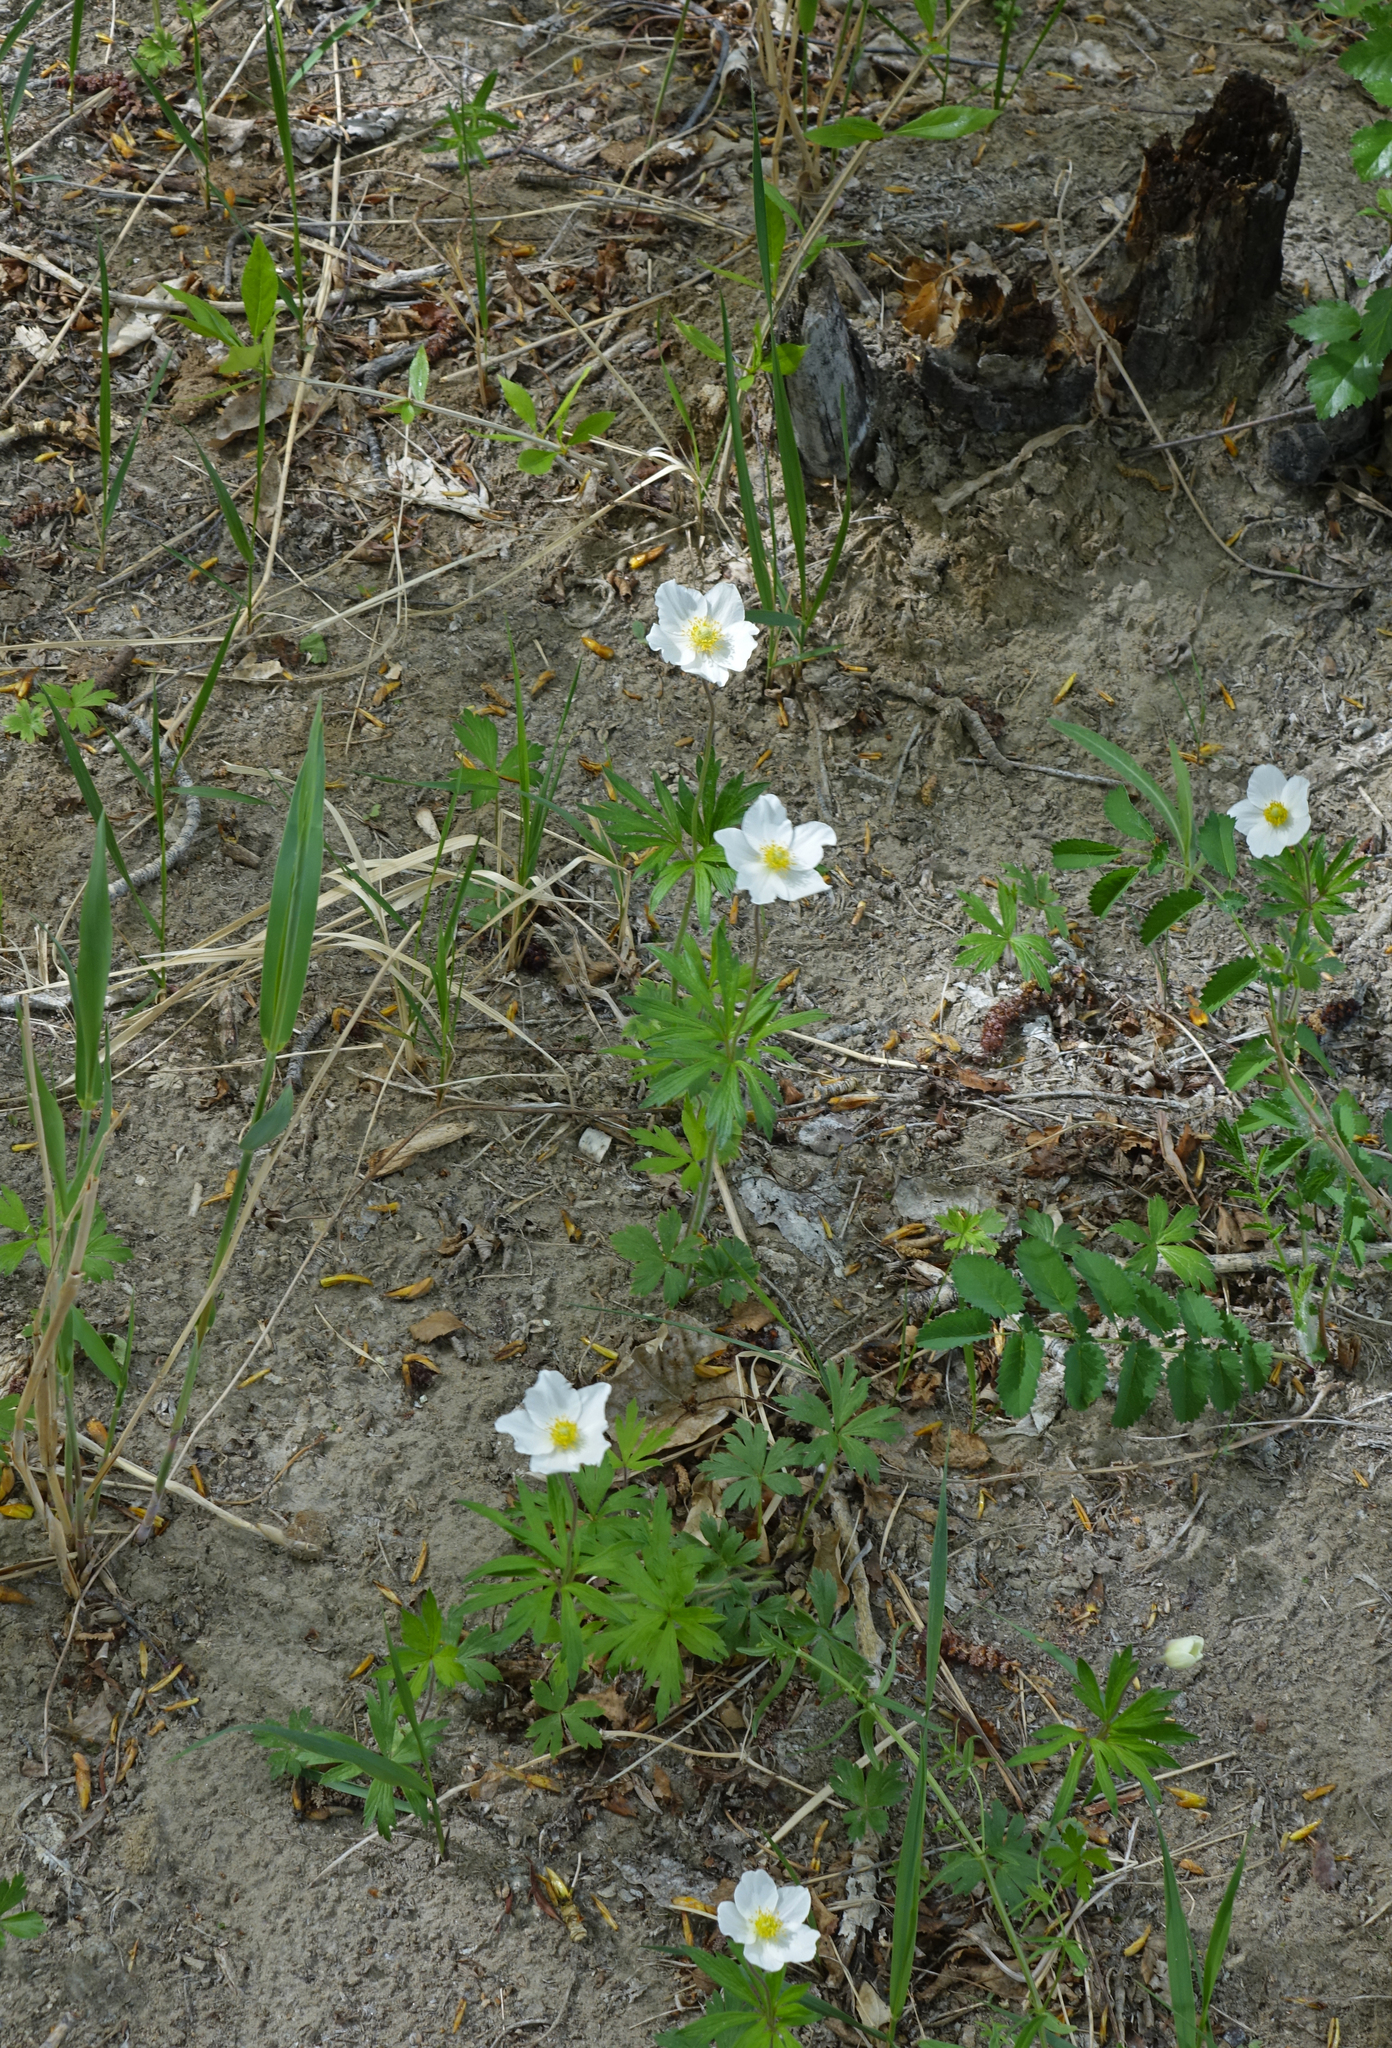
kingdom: Plantae
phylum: Tracheophyta
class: Magnoliopsida
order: Ranunculales
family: Ranunculaceae
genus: Anemone
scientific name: Anemone sylvestris
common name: Snowdrop anemone
